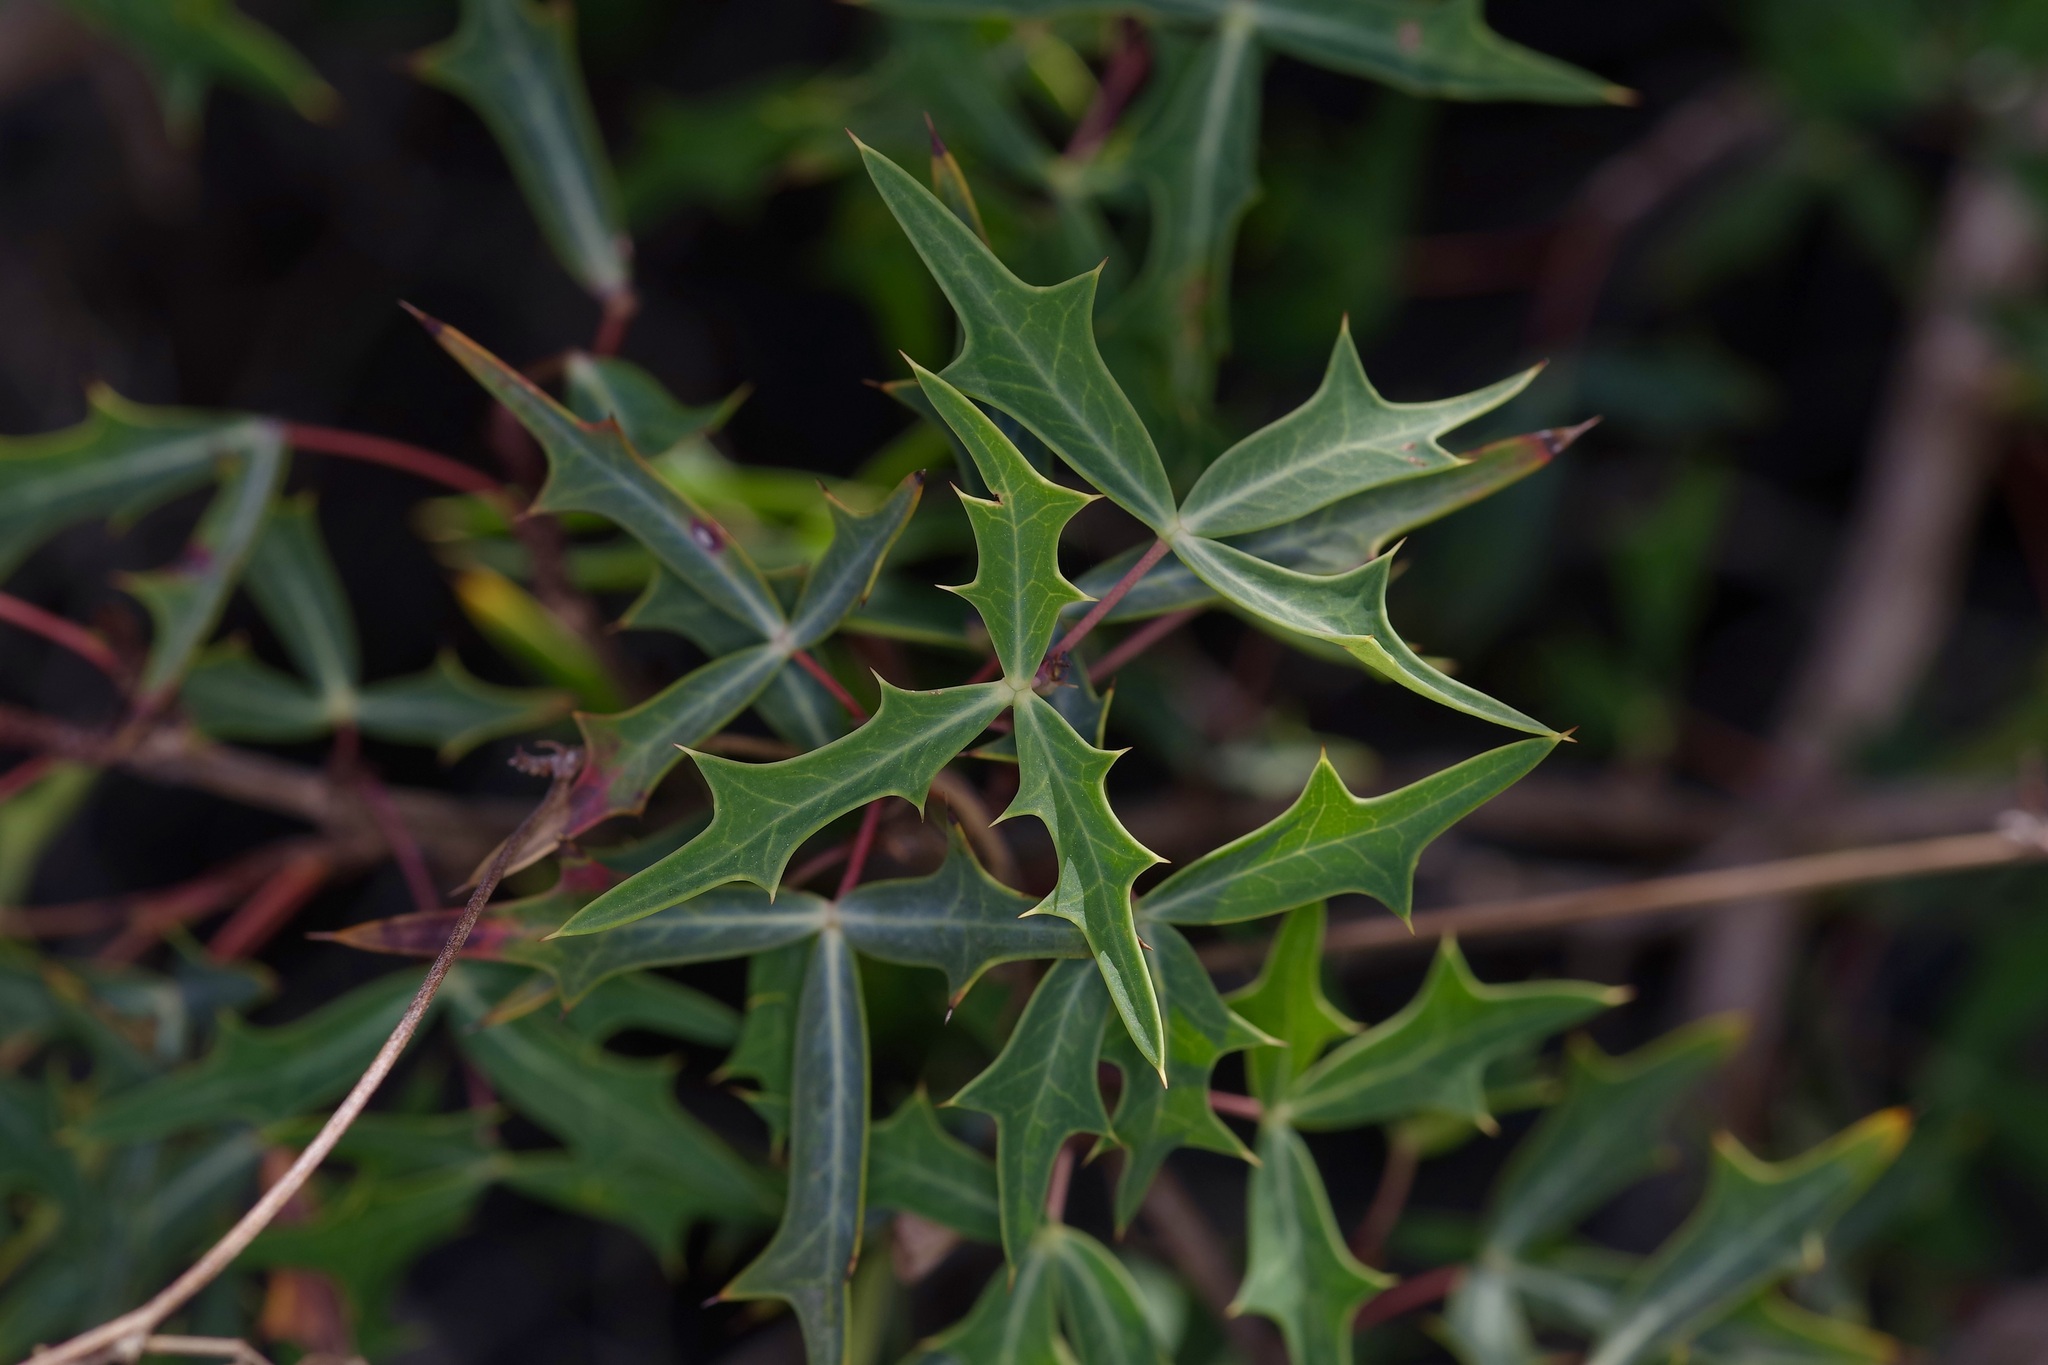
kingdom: Plantae
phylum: Tracheophyta
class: Magnoliopsida
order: Ranunculales
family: Berberidaceae
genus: Alloberberis
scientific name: Alloberberis trifoliolata
